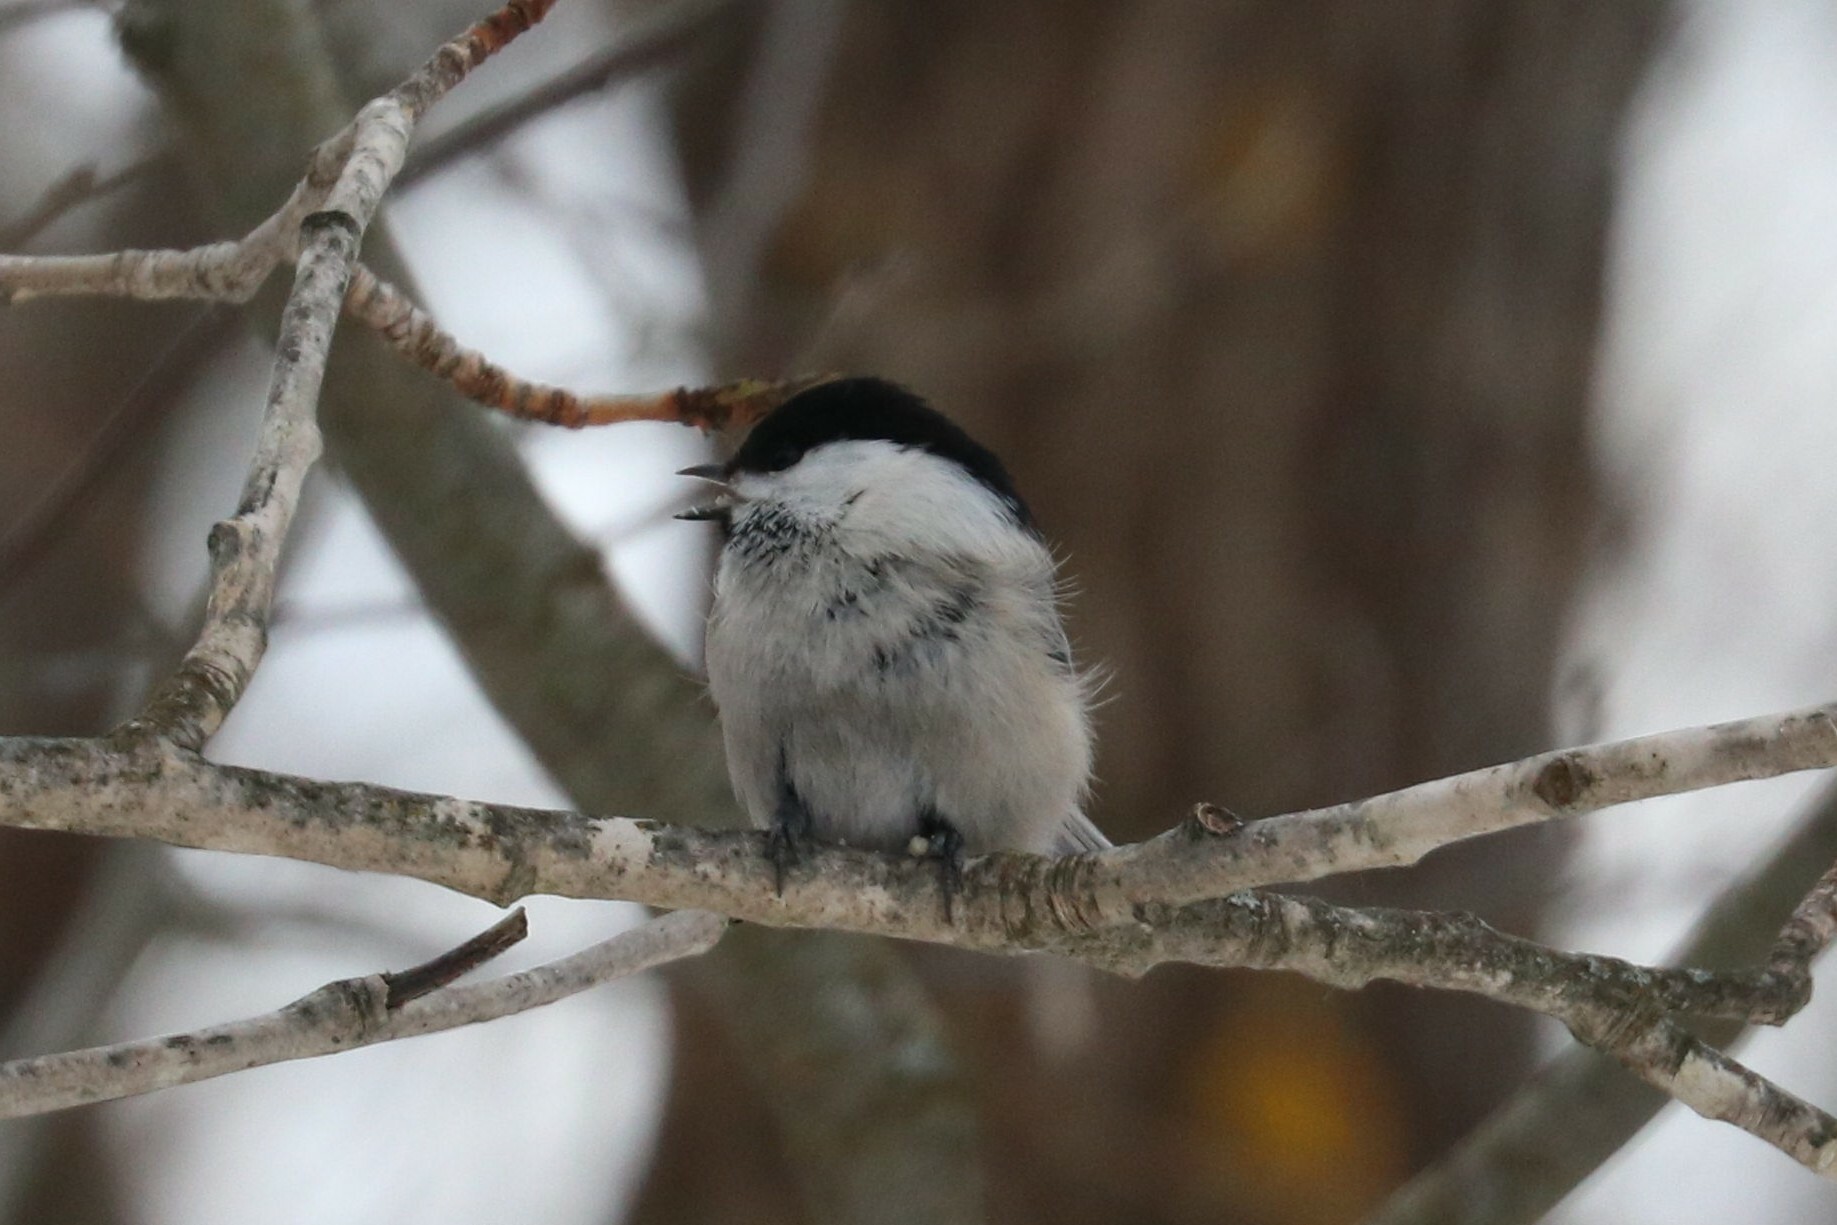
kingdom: Animalia
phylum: Chordata
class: Aves
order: Passeriformes
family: Paridae
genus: Poecile
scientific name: Poecile montanus
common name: Willow tit
